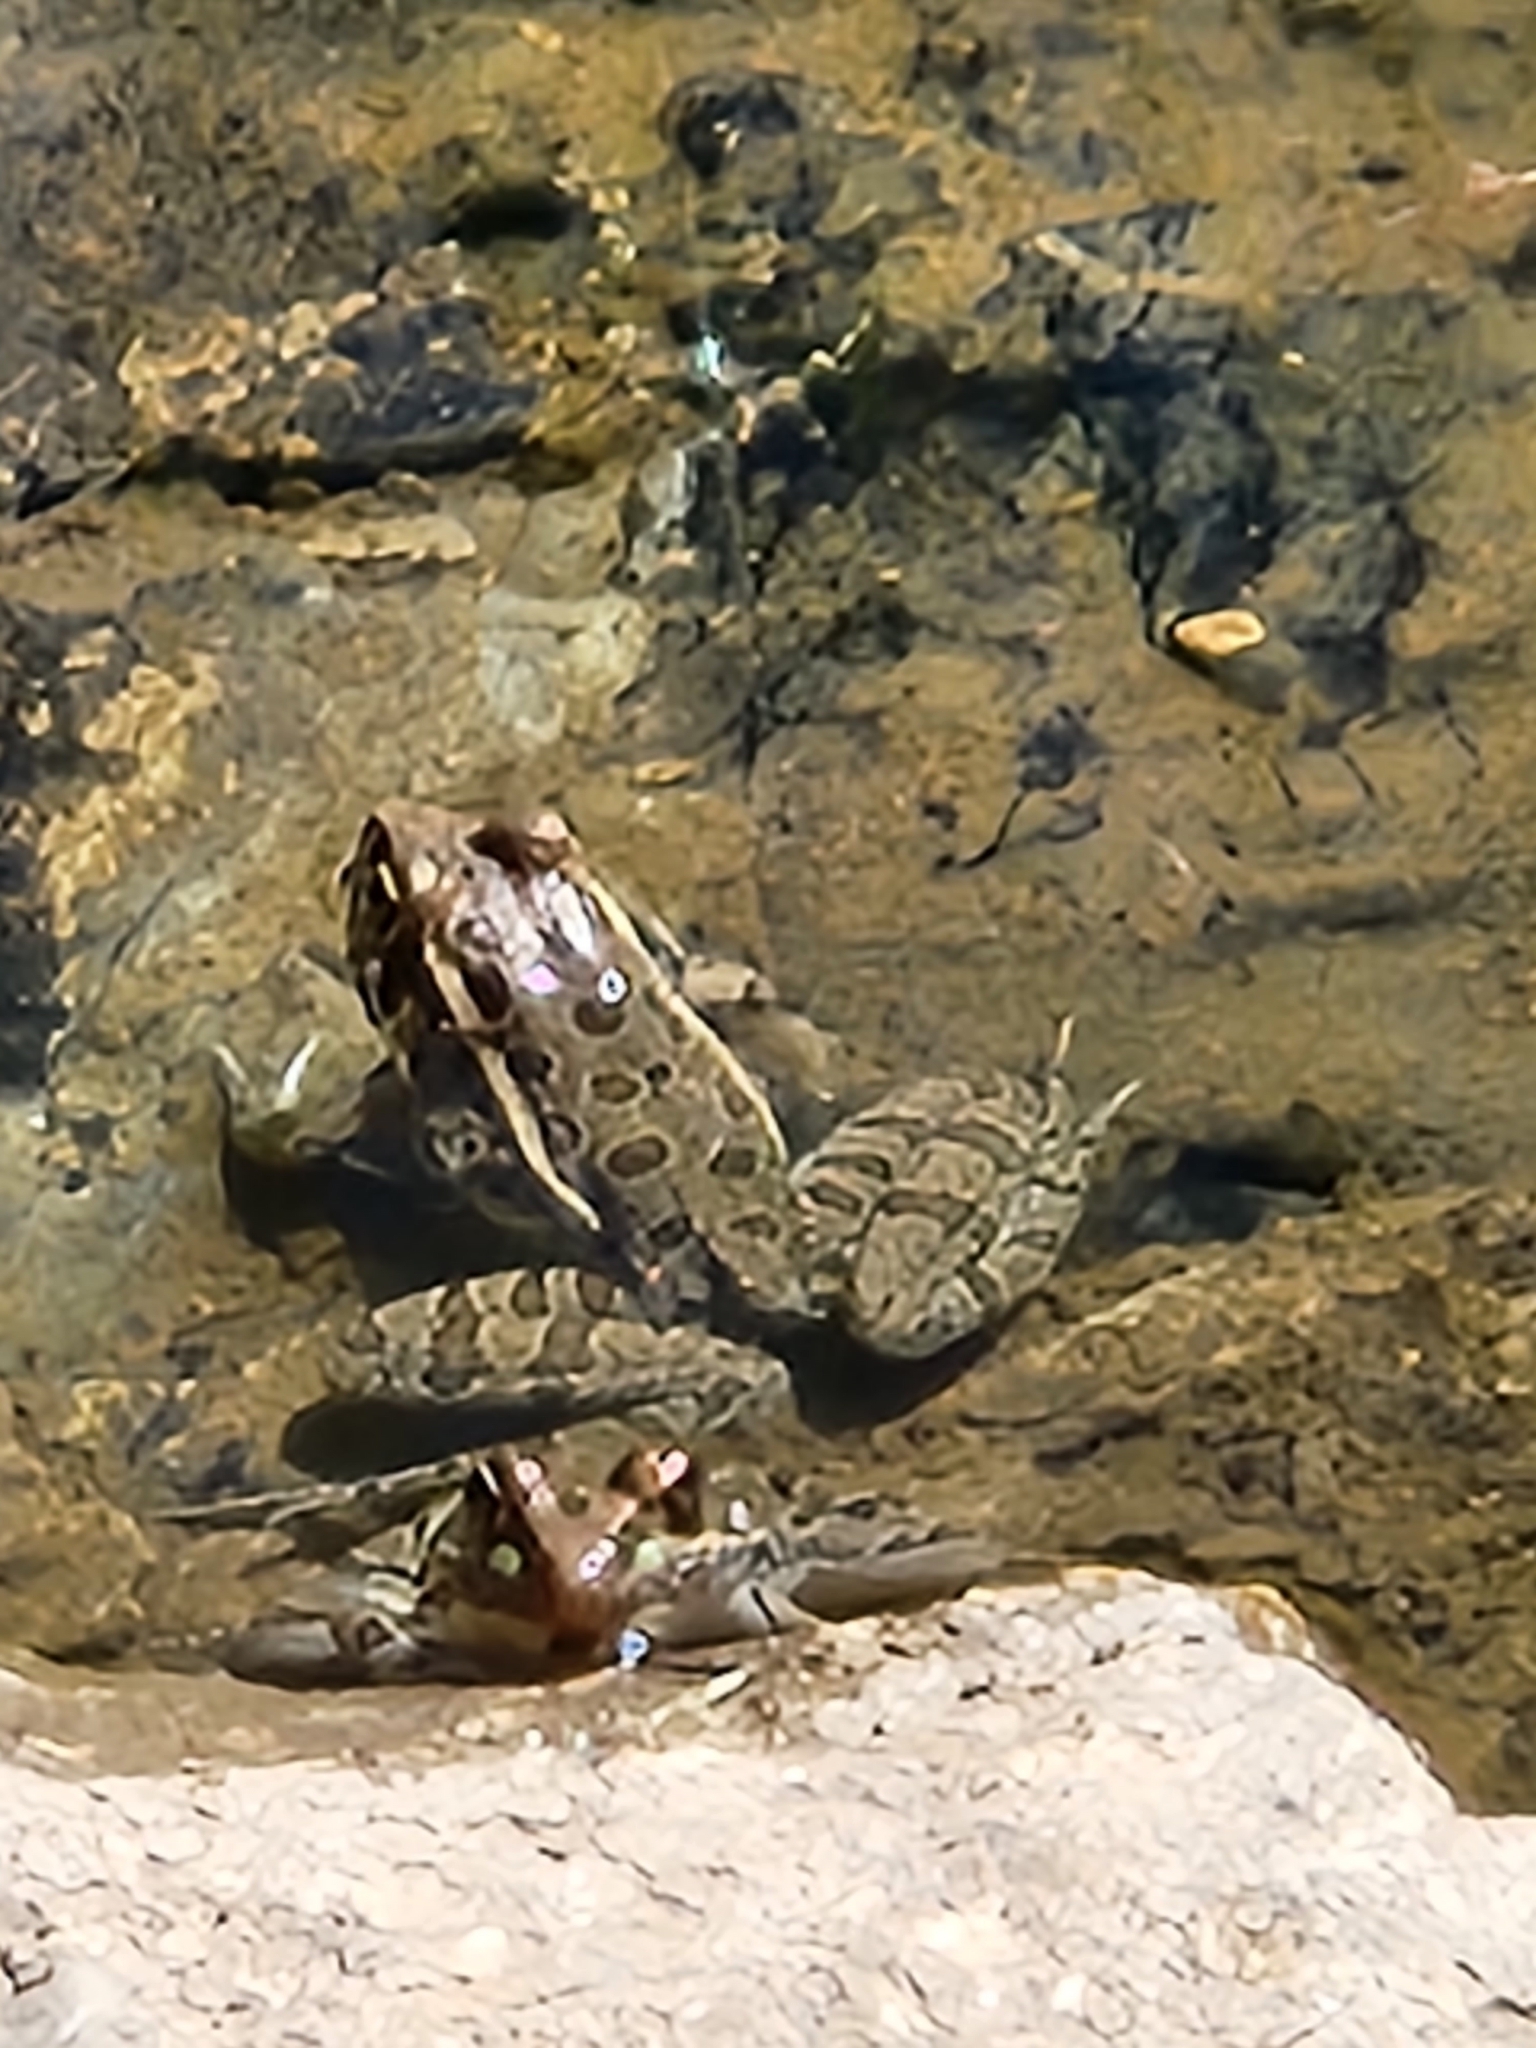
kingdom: Animalia
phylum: Chordata
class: Amphibia
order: Anura
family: Ranidae
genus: Lithobates
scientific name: Lithobates berlandieri
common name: Rio grande leopard frog
